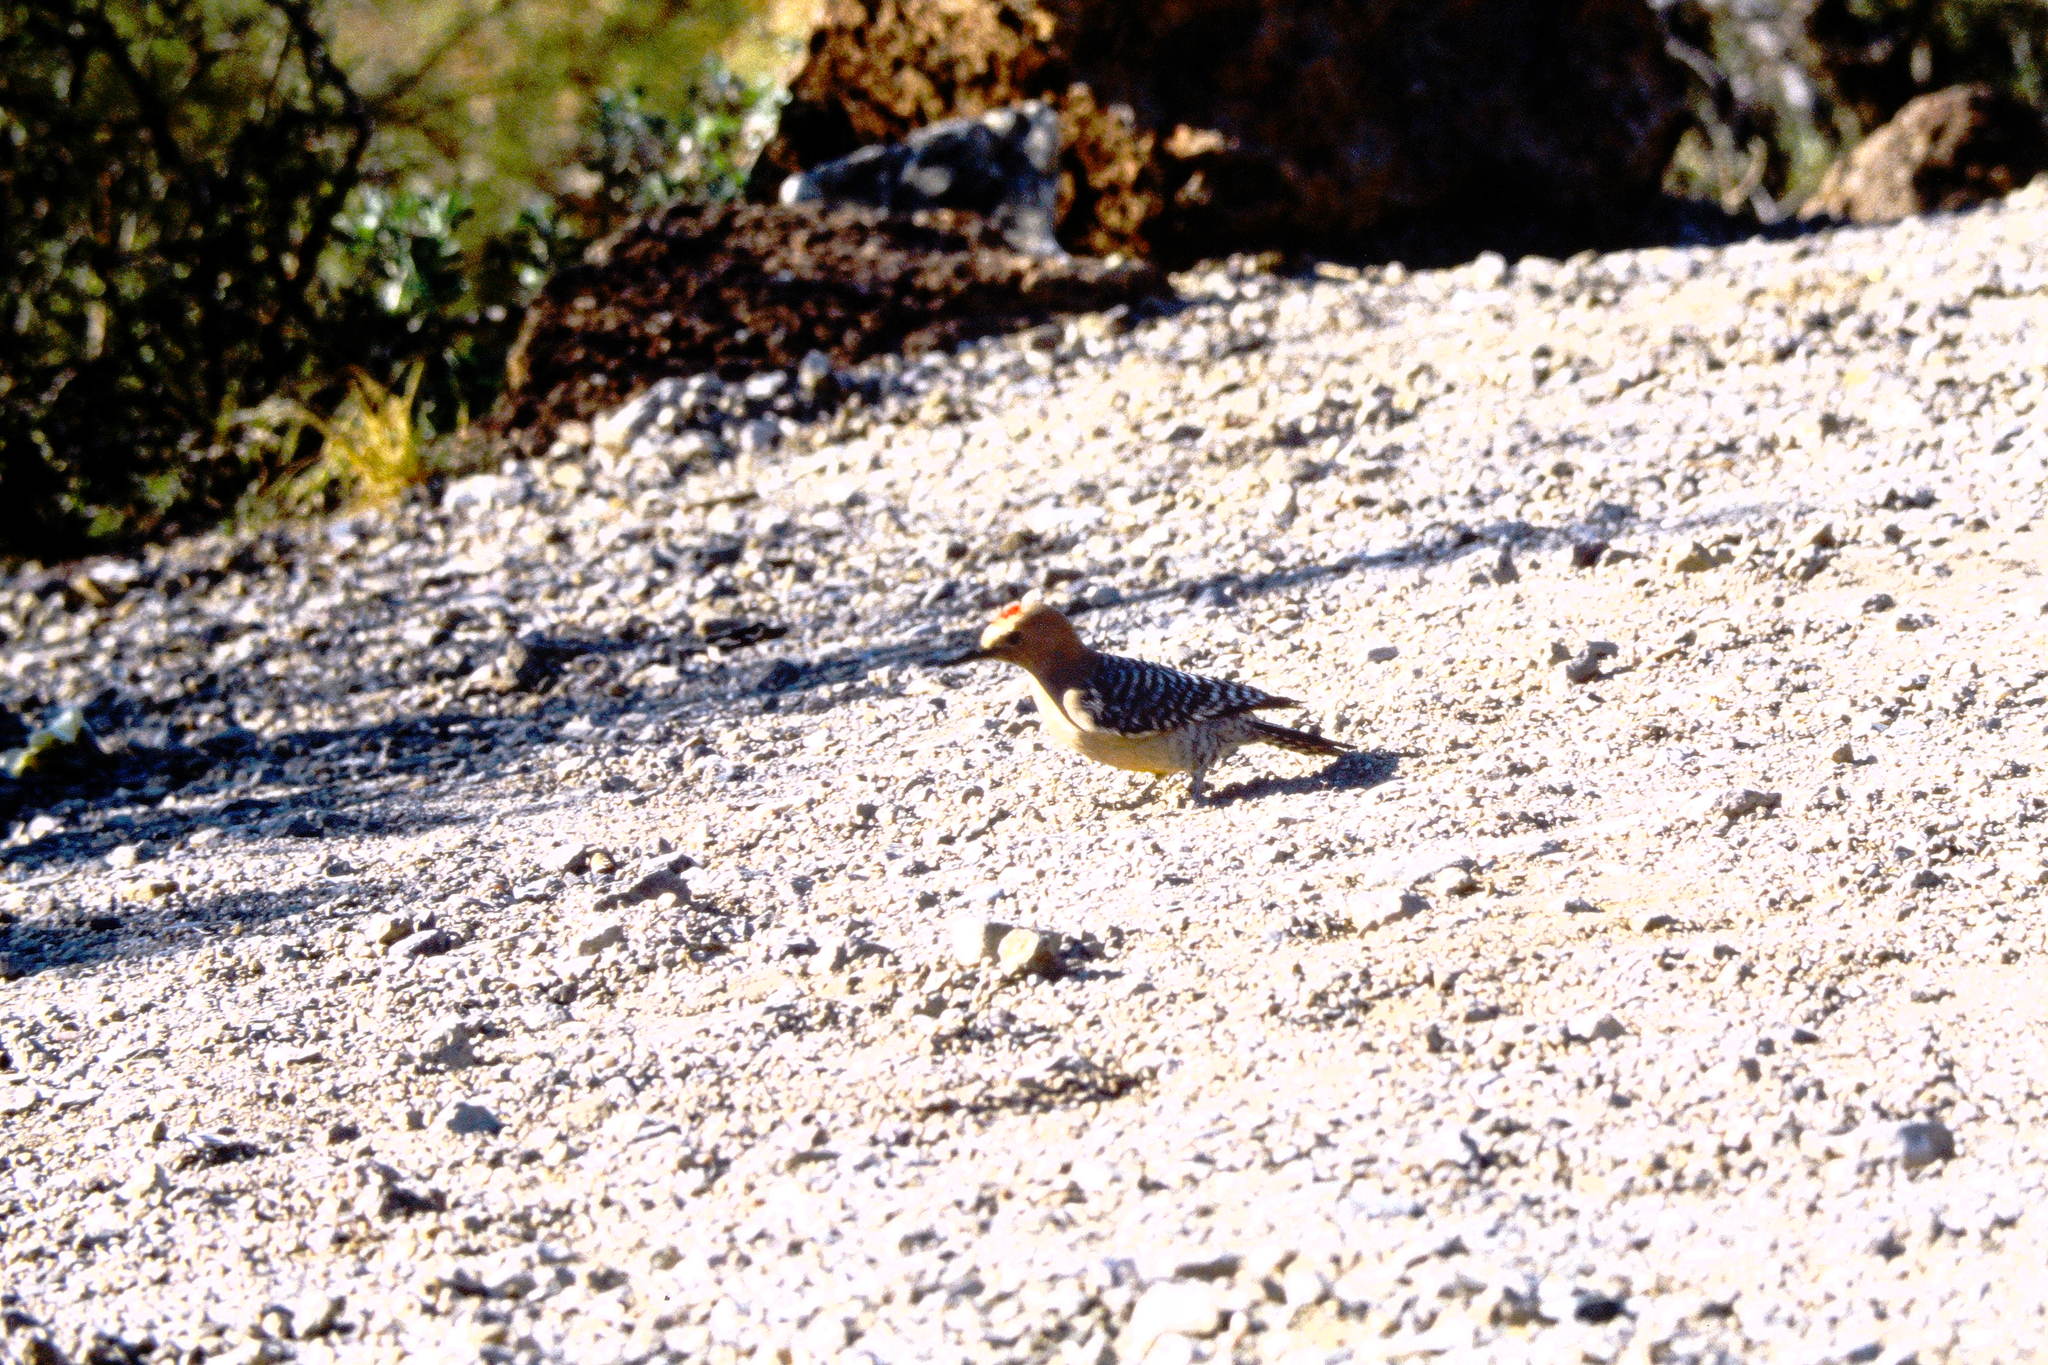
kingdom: Animalia
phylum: Chordata
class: Aves
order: Piciformes
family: Picidae
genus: Melanerpes
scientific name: Melanerpes uropygialis
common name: Gila woodpecker
